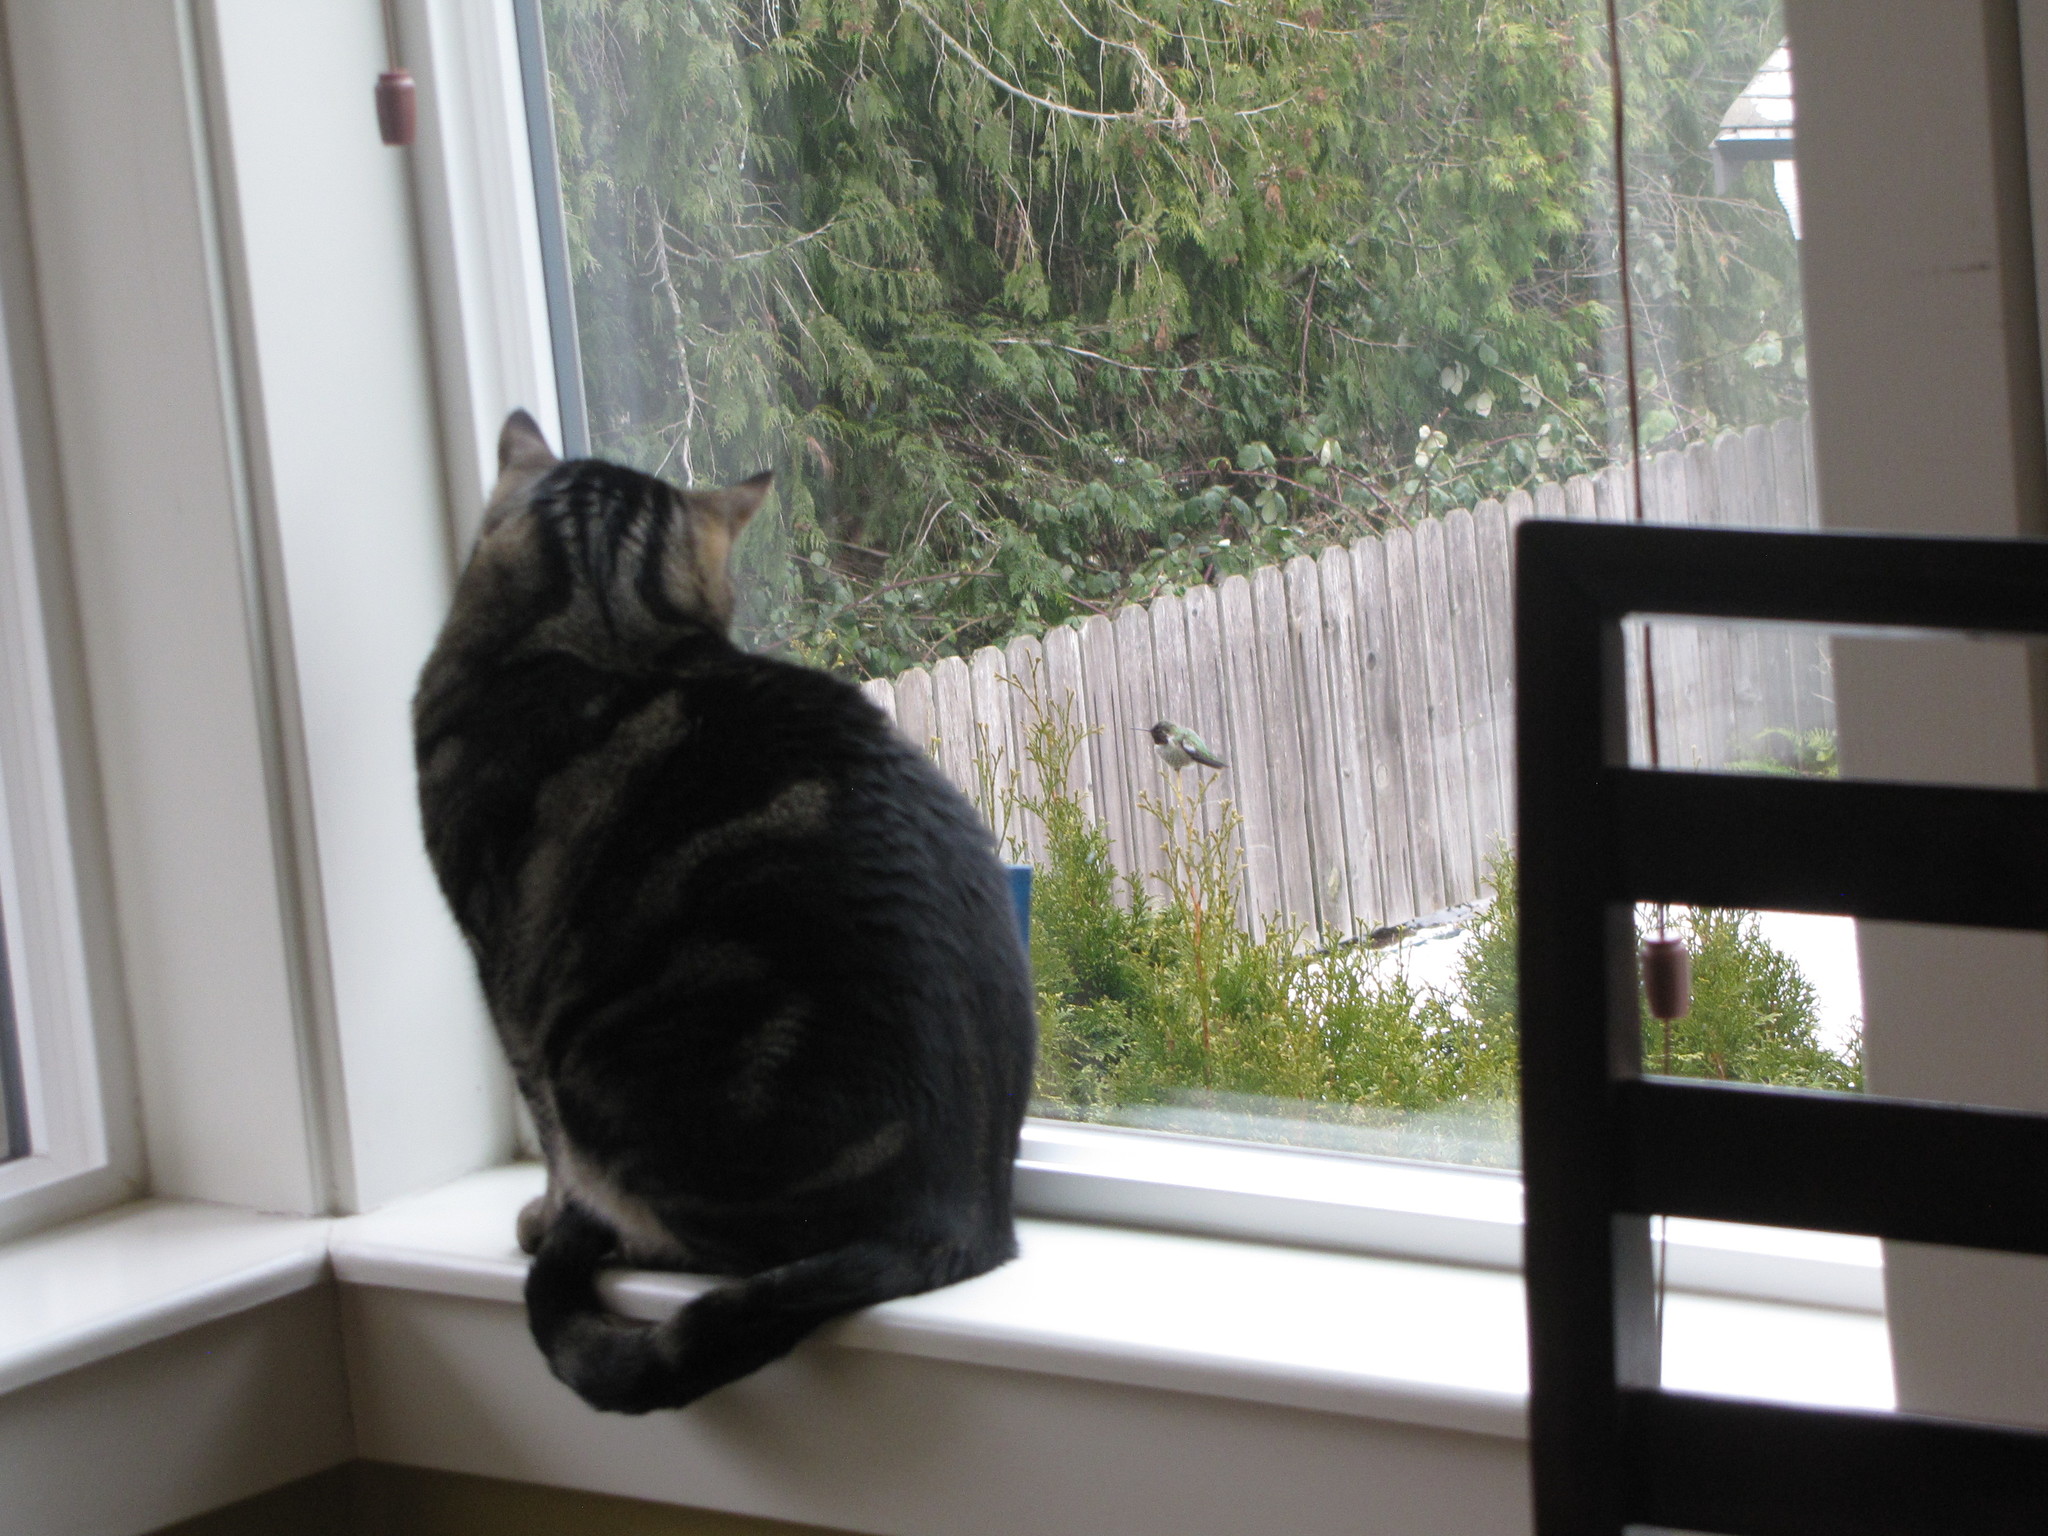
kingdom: Animalia
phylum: Chordata
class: Aves
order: Apodiformes
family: Trochilidae
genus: Calypte
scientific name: Calypte anna
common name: Anna's hummingbird
